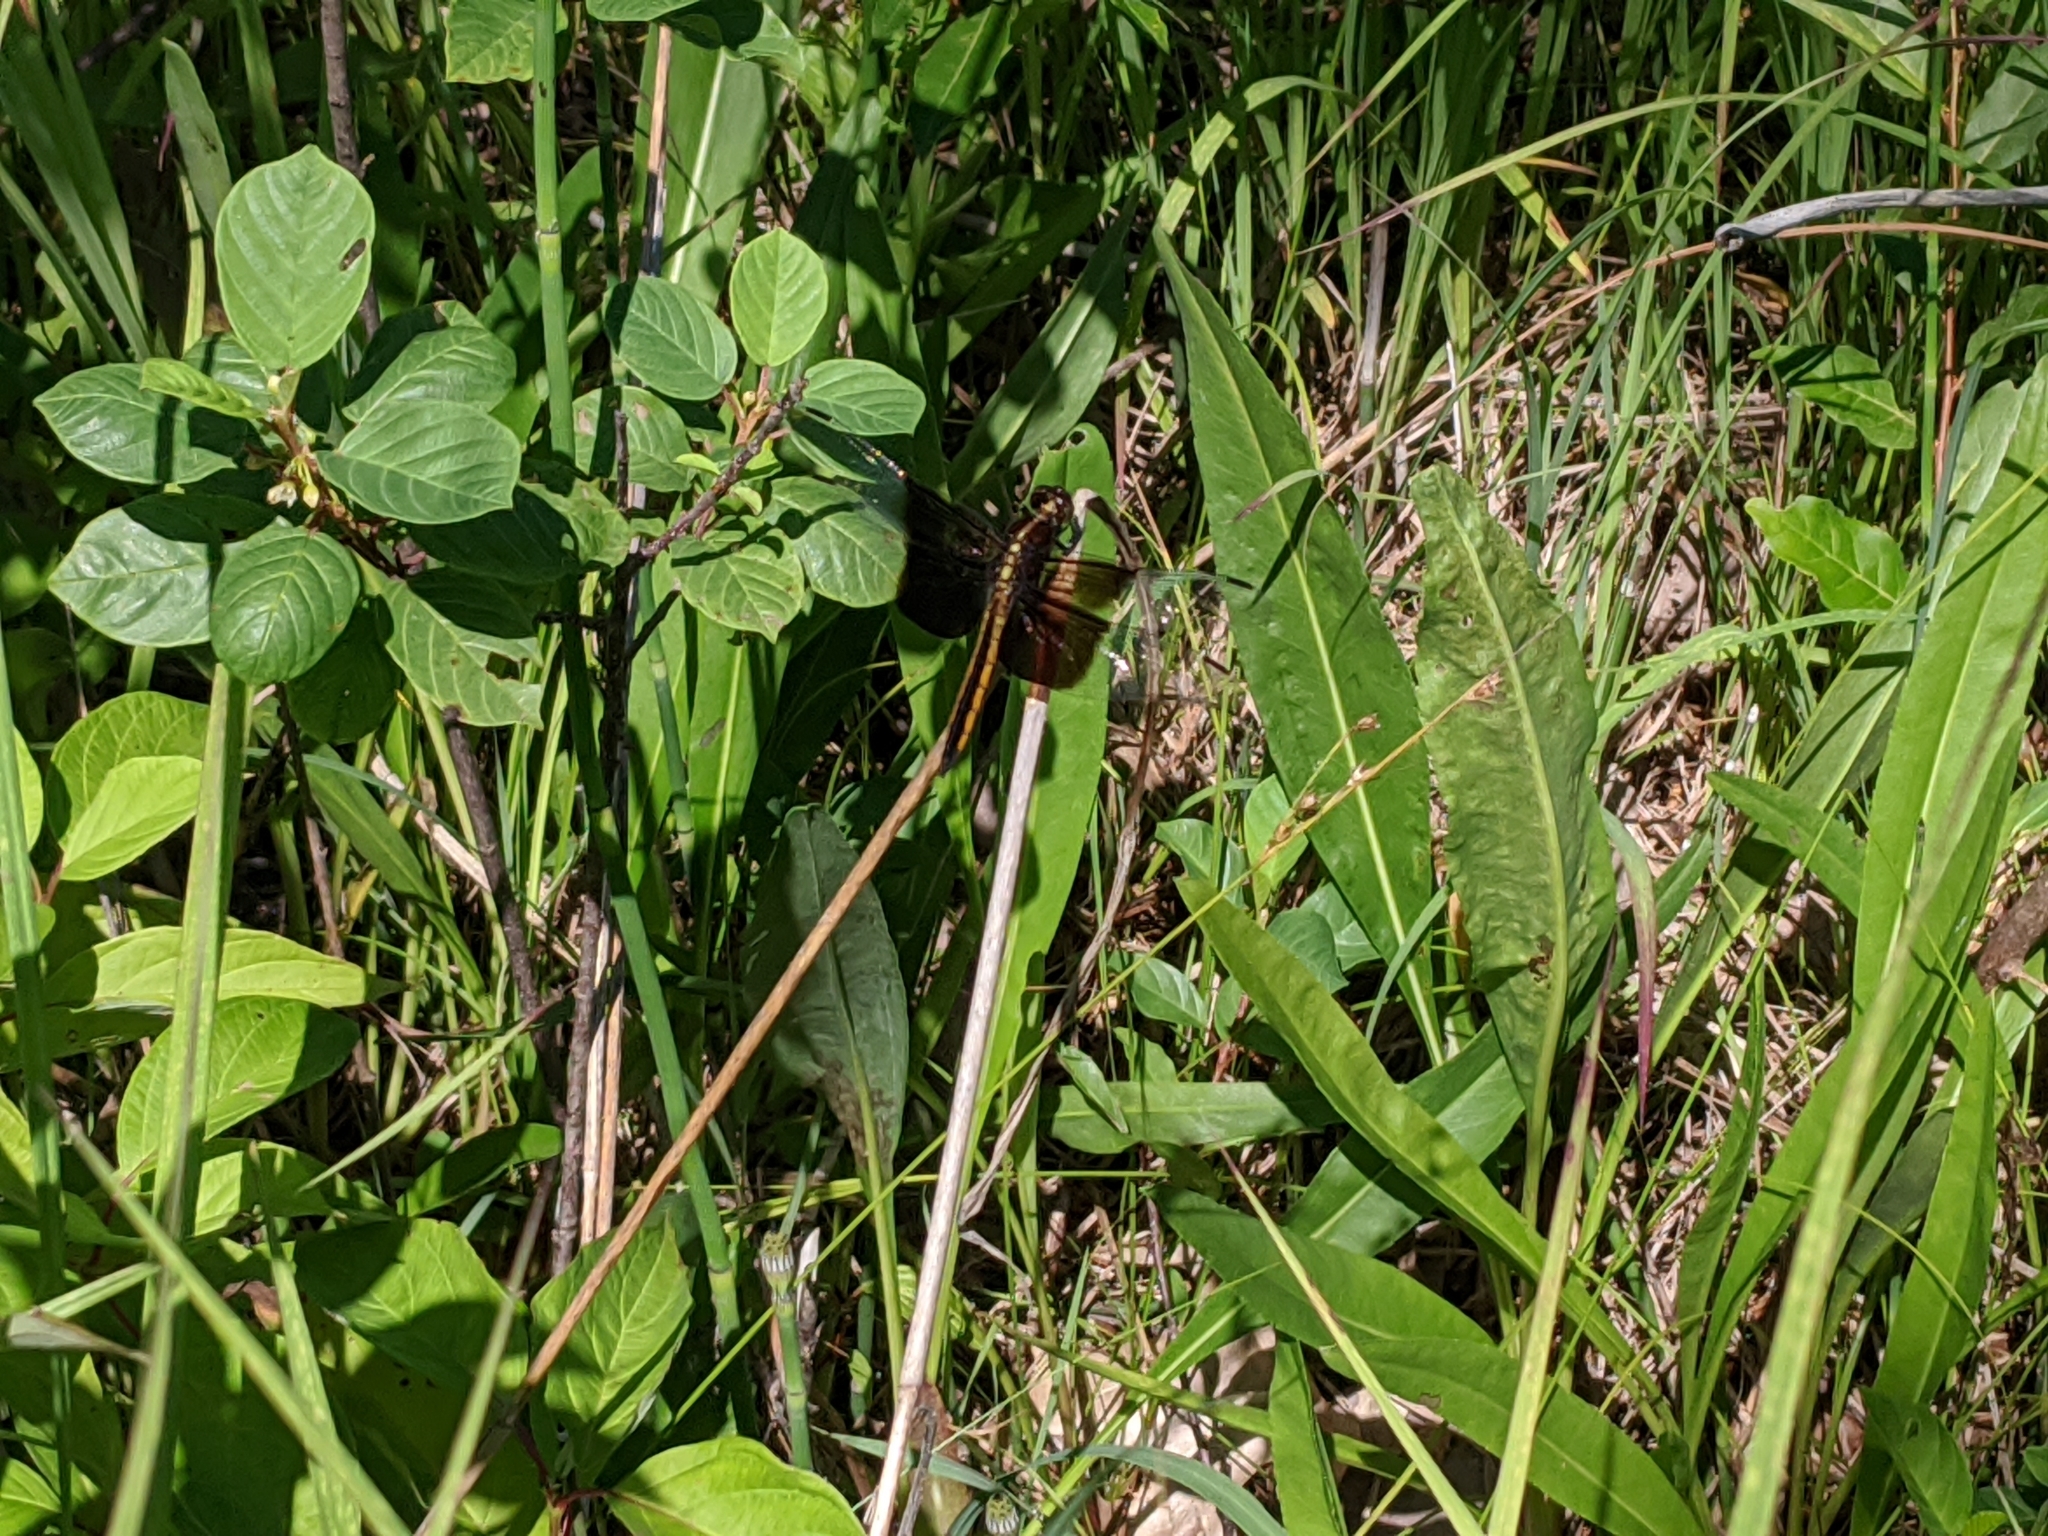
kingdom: Animalia
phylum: Arthropoda
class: Insecta
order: Odonata
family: Libellulidae
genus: Libellula
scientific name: Libellula luctuosa
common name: Widow skimmer
